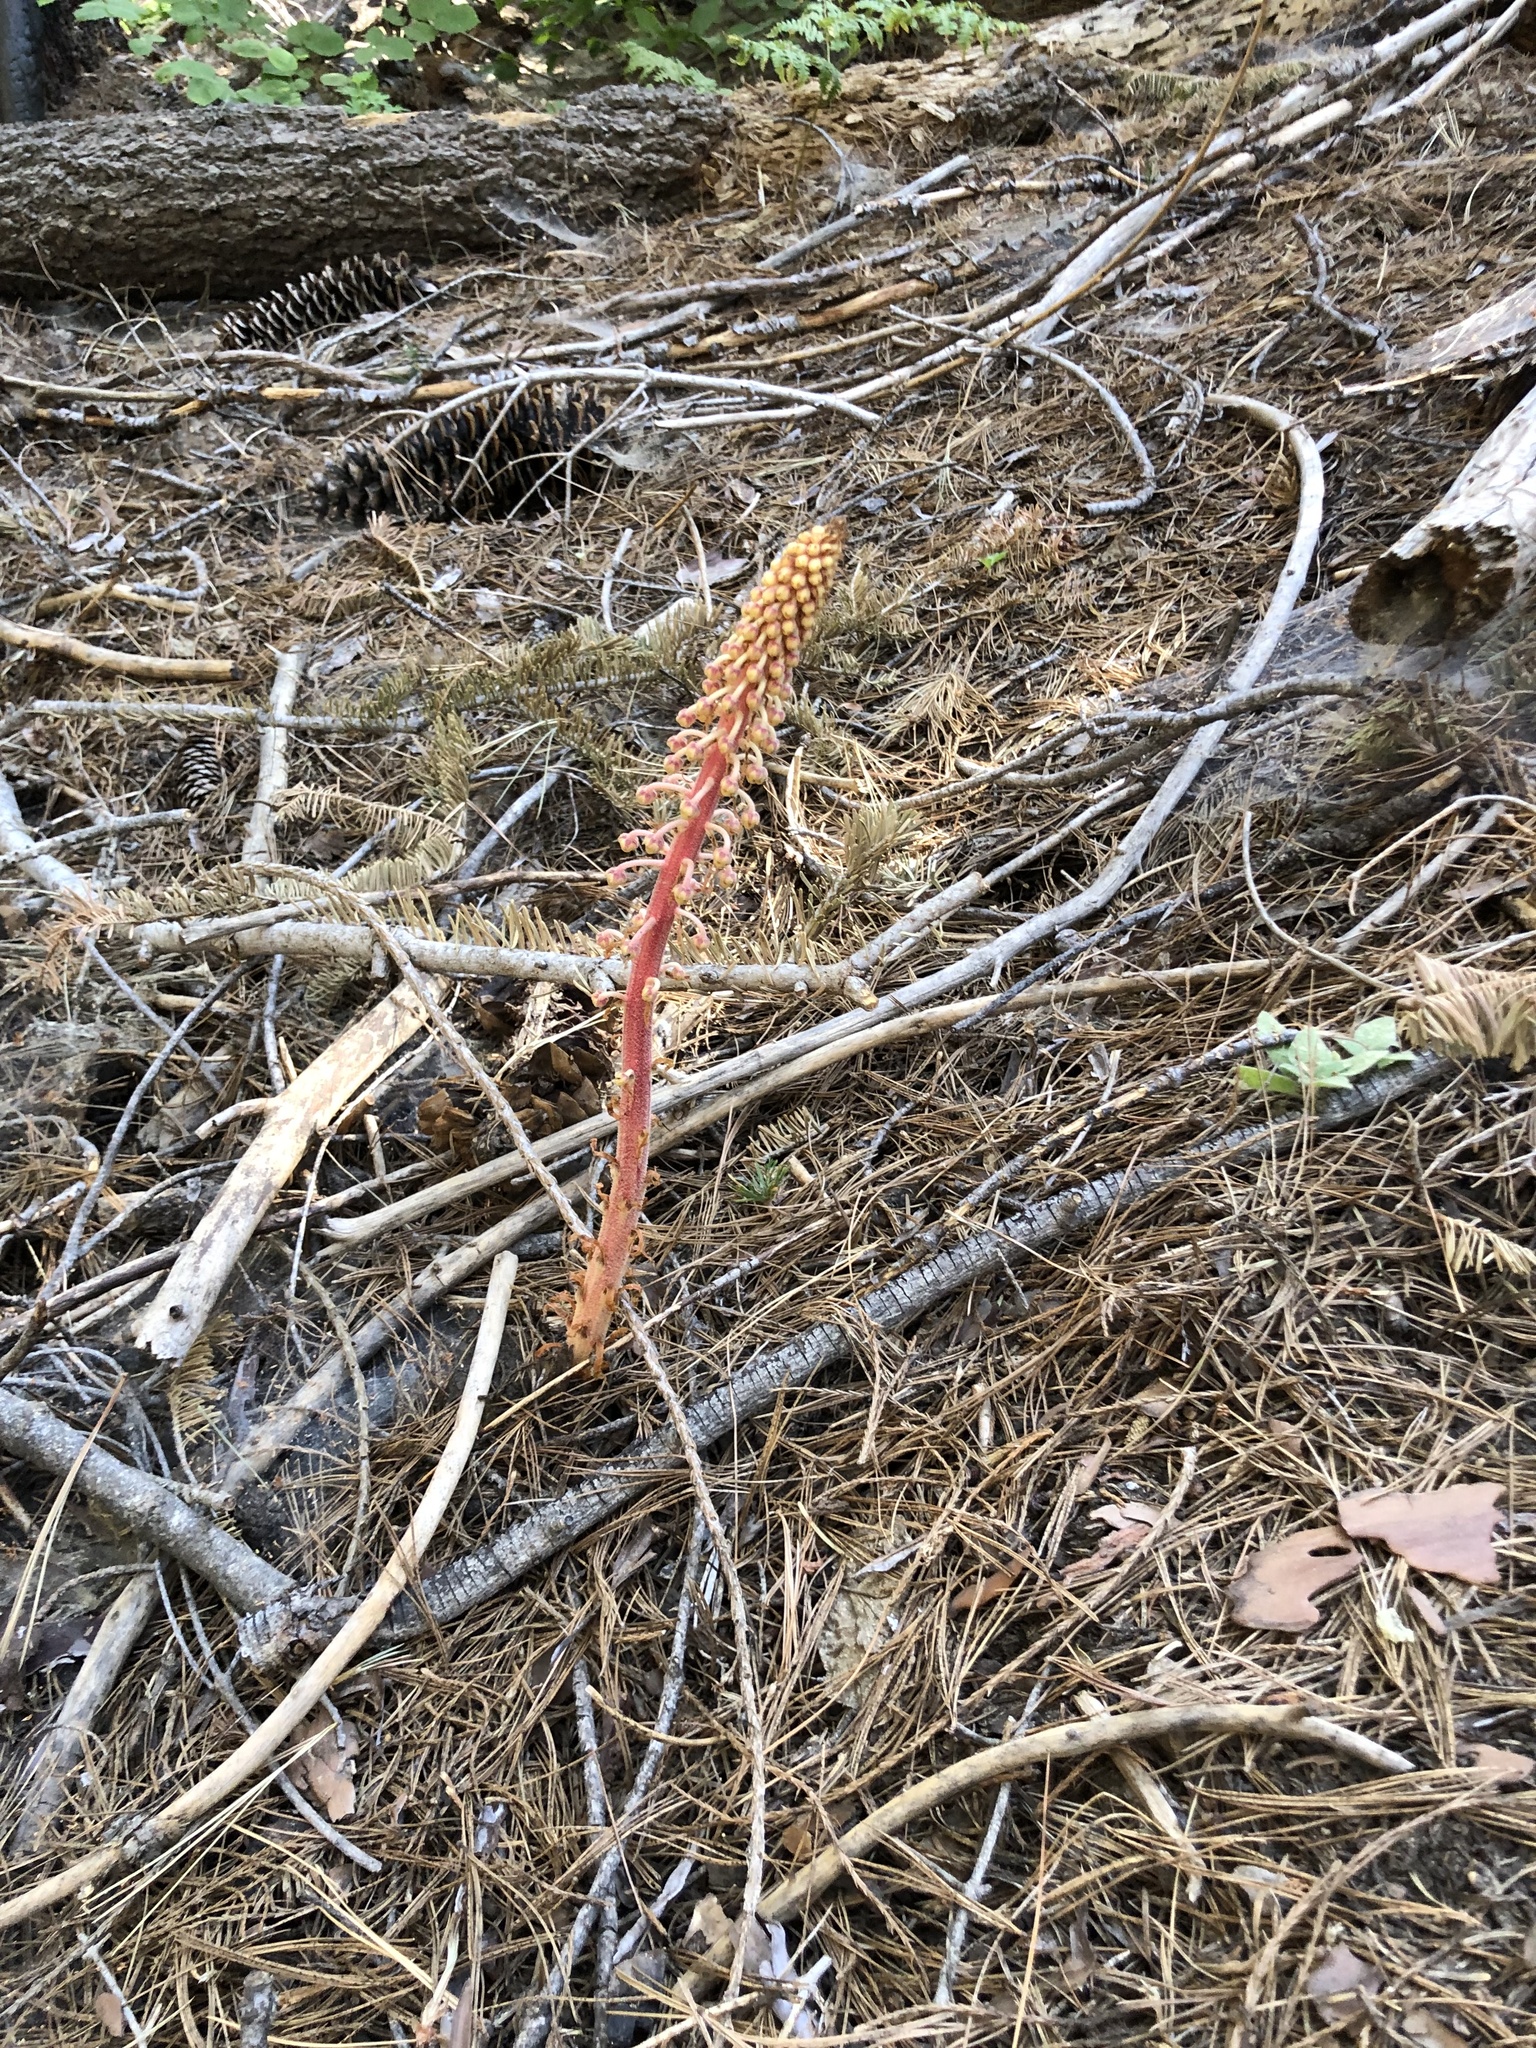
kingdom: Plantae
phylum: Tracheophyta
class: Magnoliopsida
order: Ericales
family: Ericaceae
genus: Pterospora
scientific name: Pterospora andromedea
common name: Giant bird's-nest
